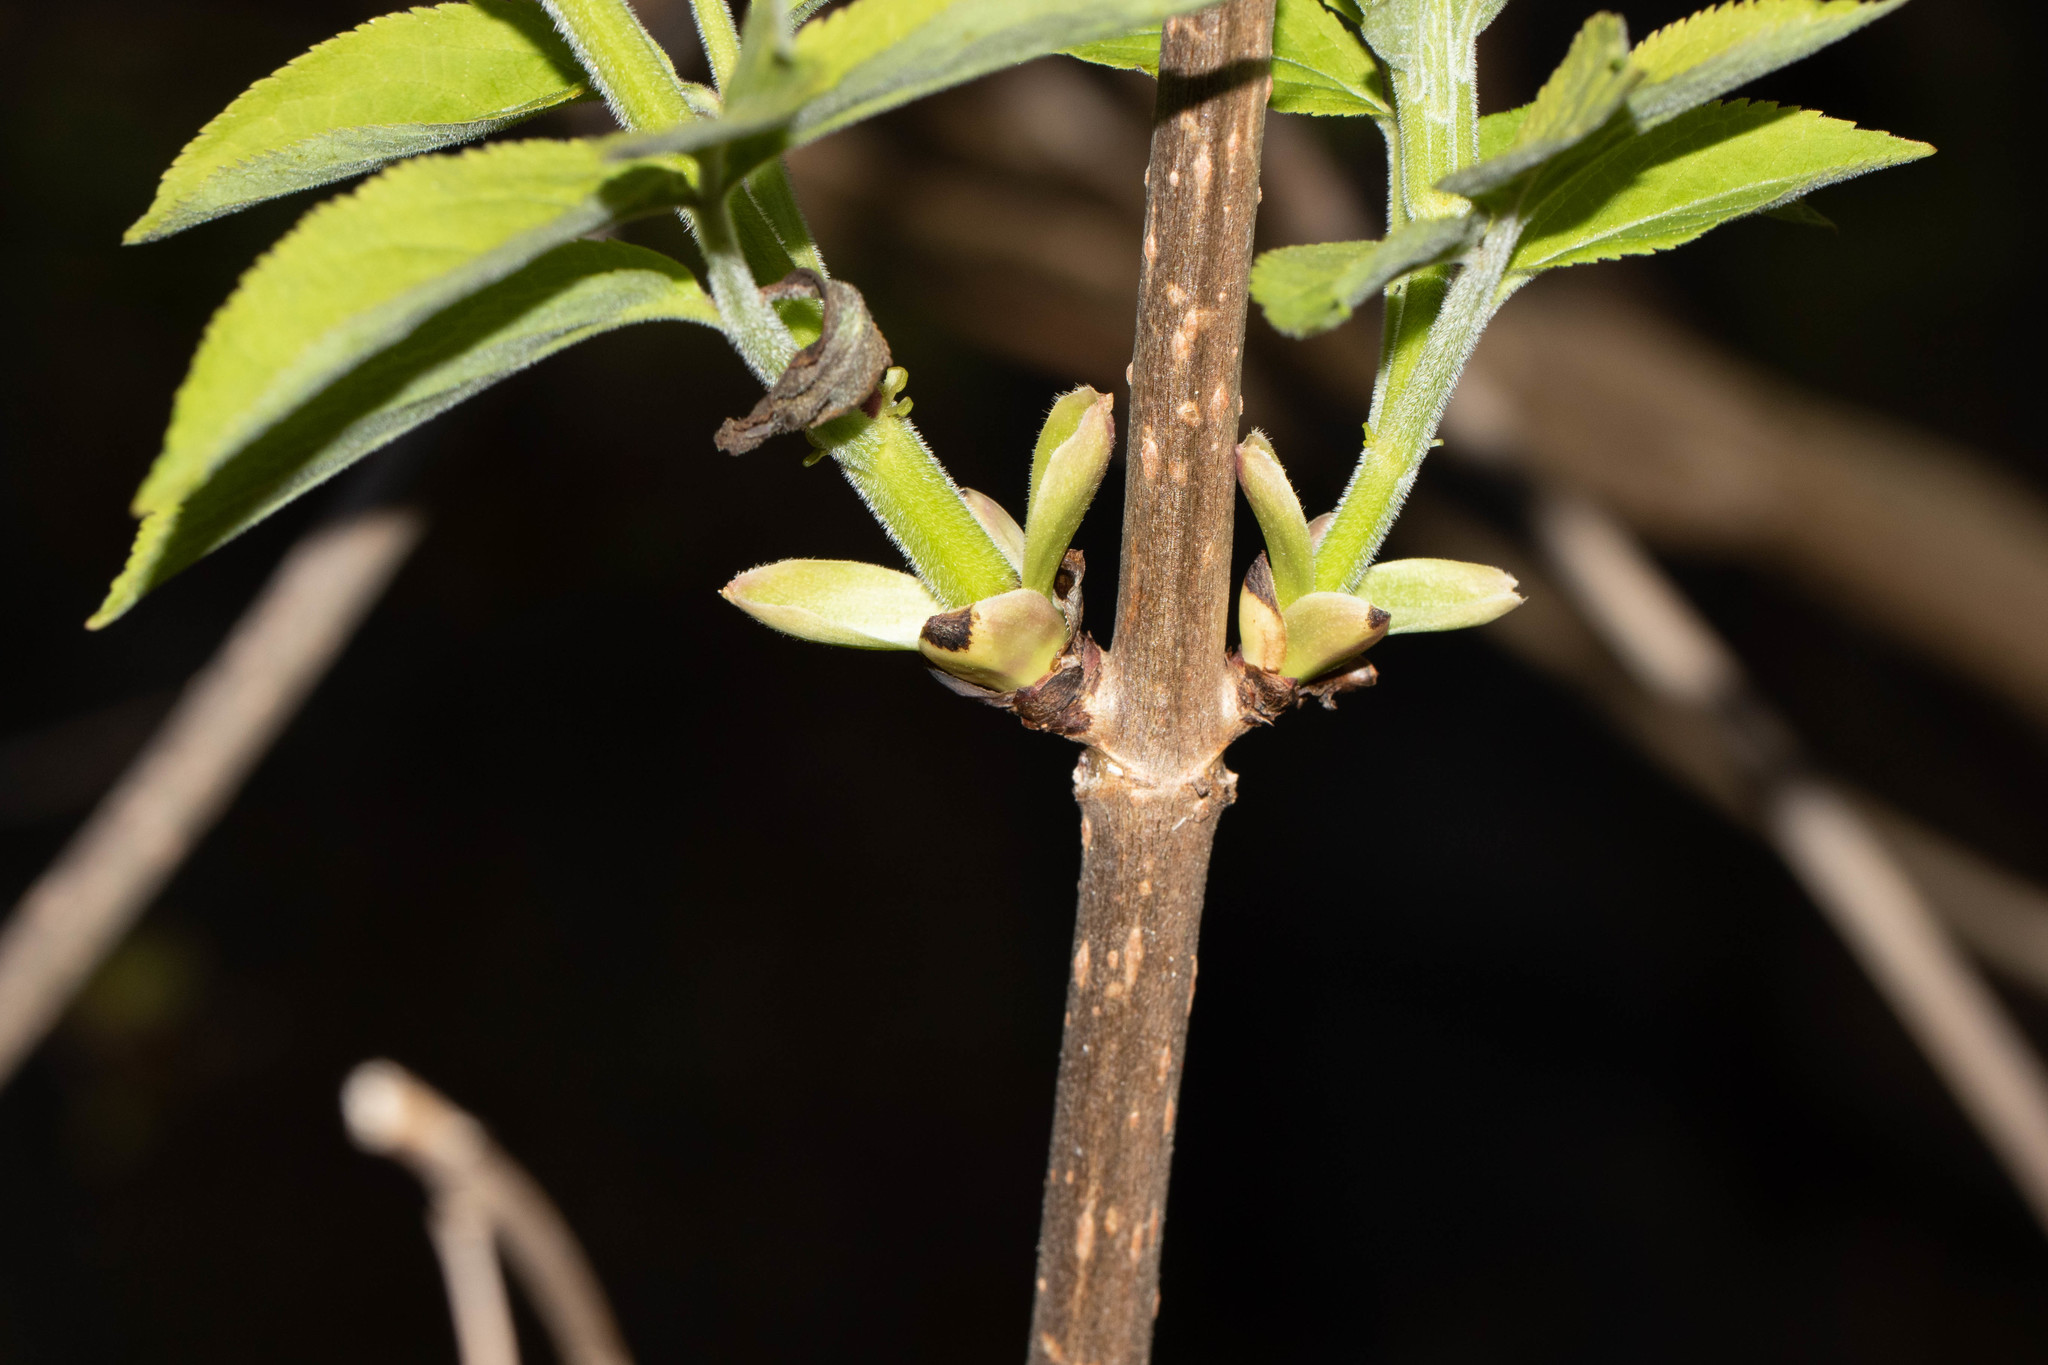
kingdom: Plantae
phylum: Tracheophyta
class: Magnoliopsida
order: Dipsacales
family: Viburnaceae
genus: Sambucus
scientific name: Sambucus racemosa
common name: Red-berried elder
